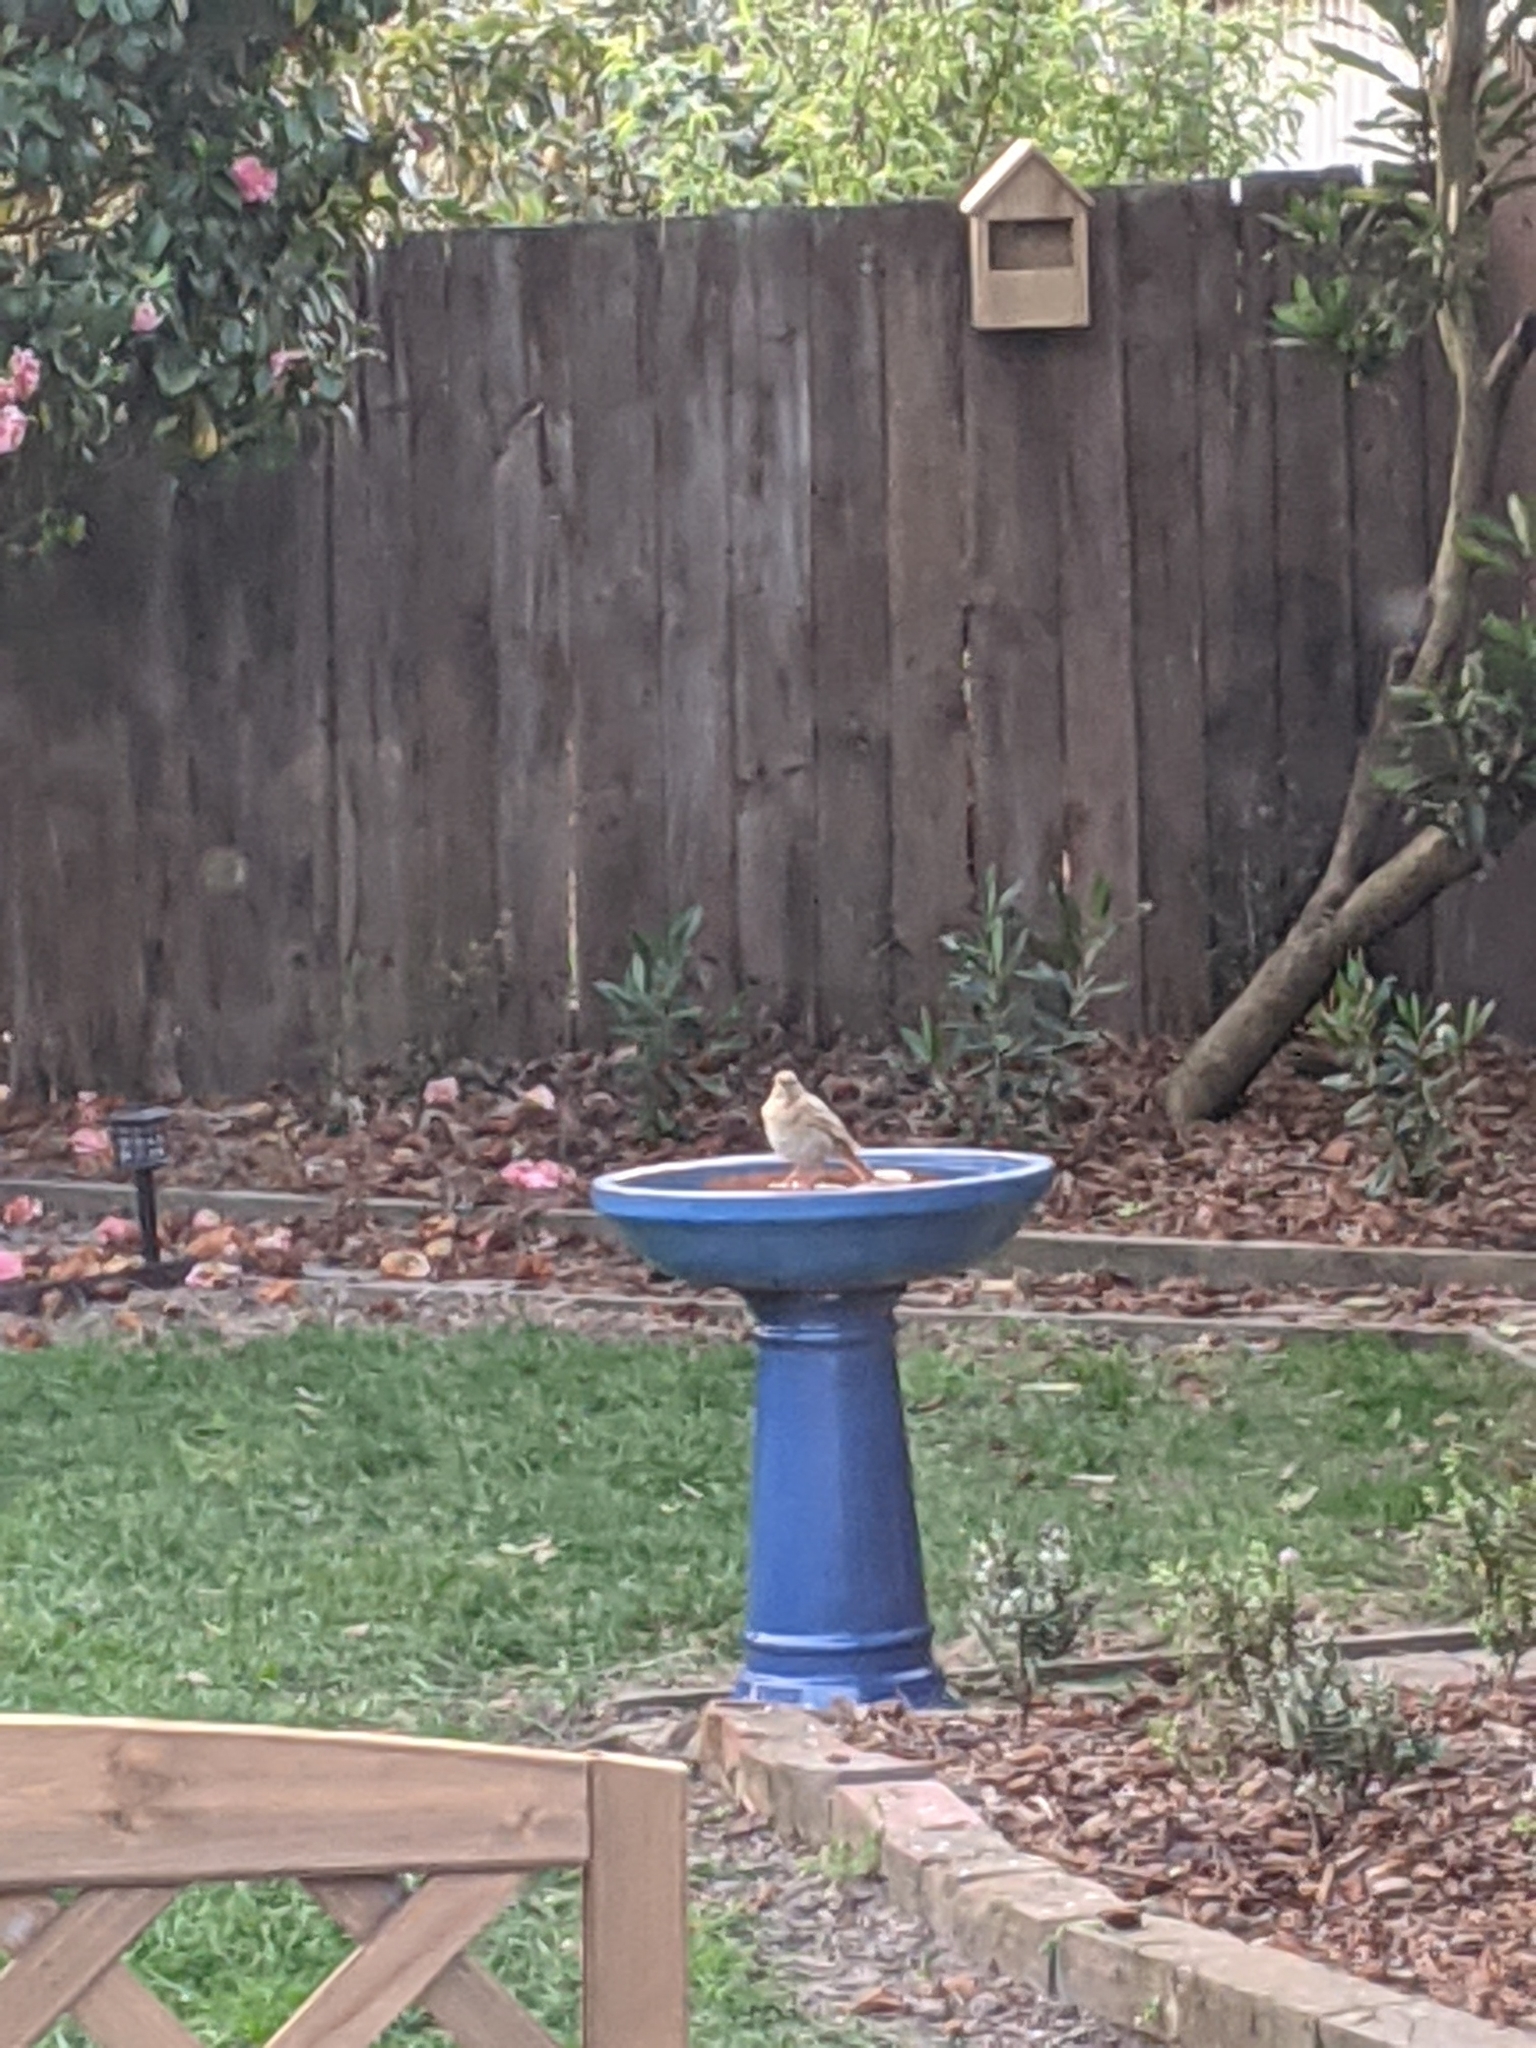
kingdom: Animalia
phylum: Chordata
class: Aves
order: Passeriformes
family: Turdidae
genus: Turdus
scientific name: Turdus philomelos
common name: Song thrush
